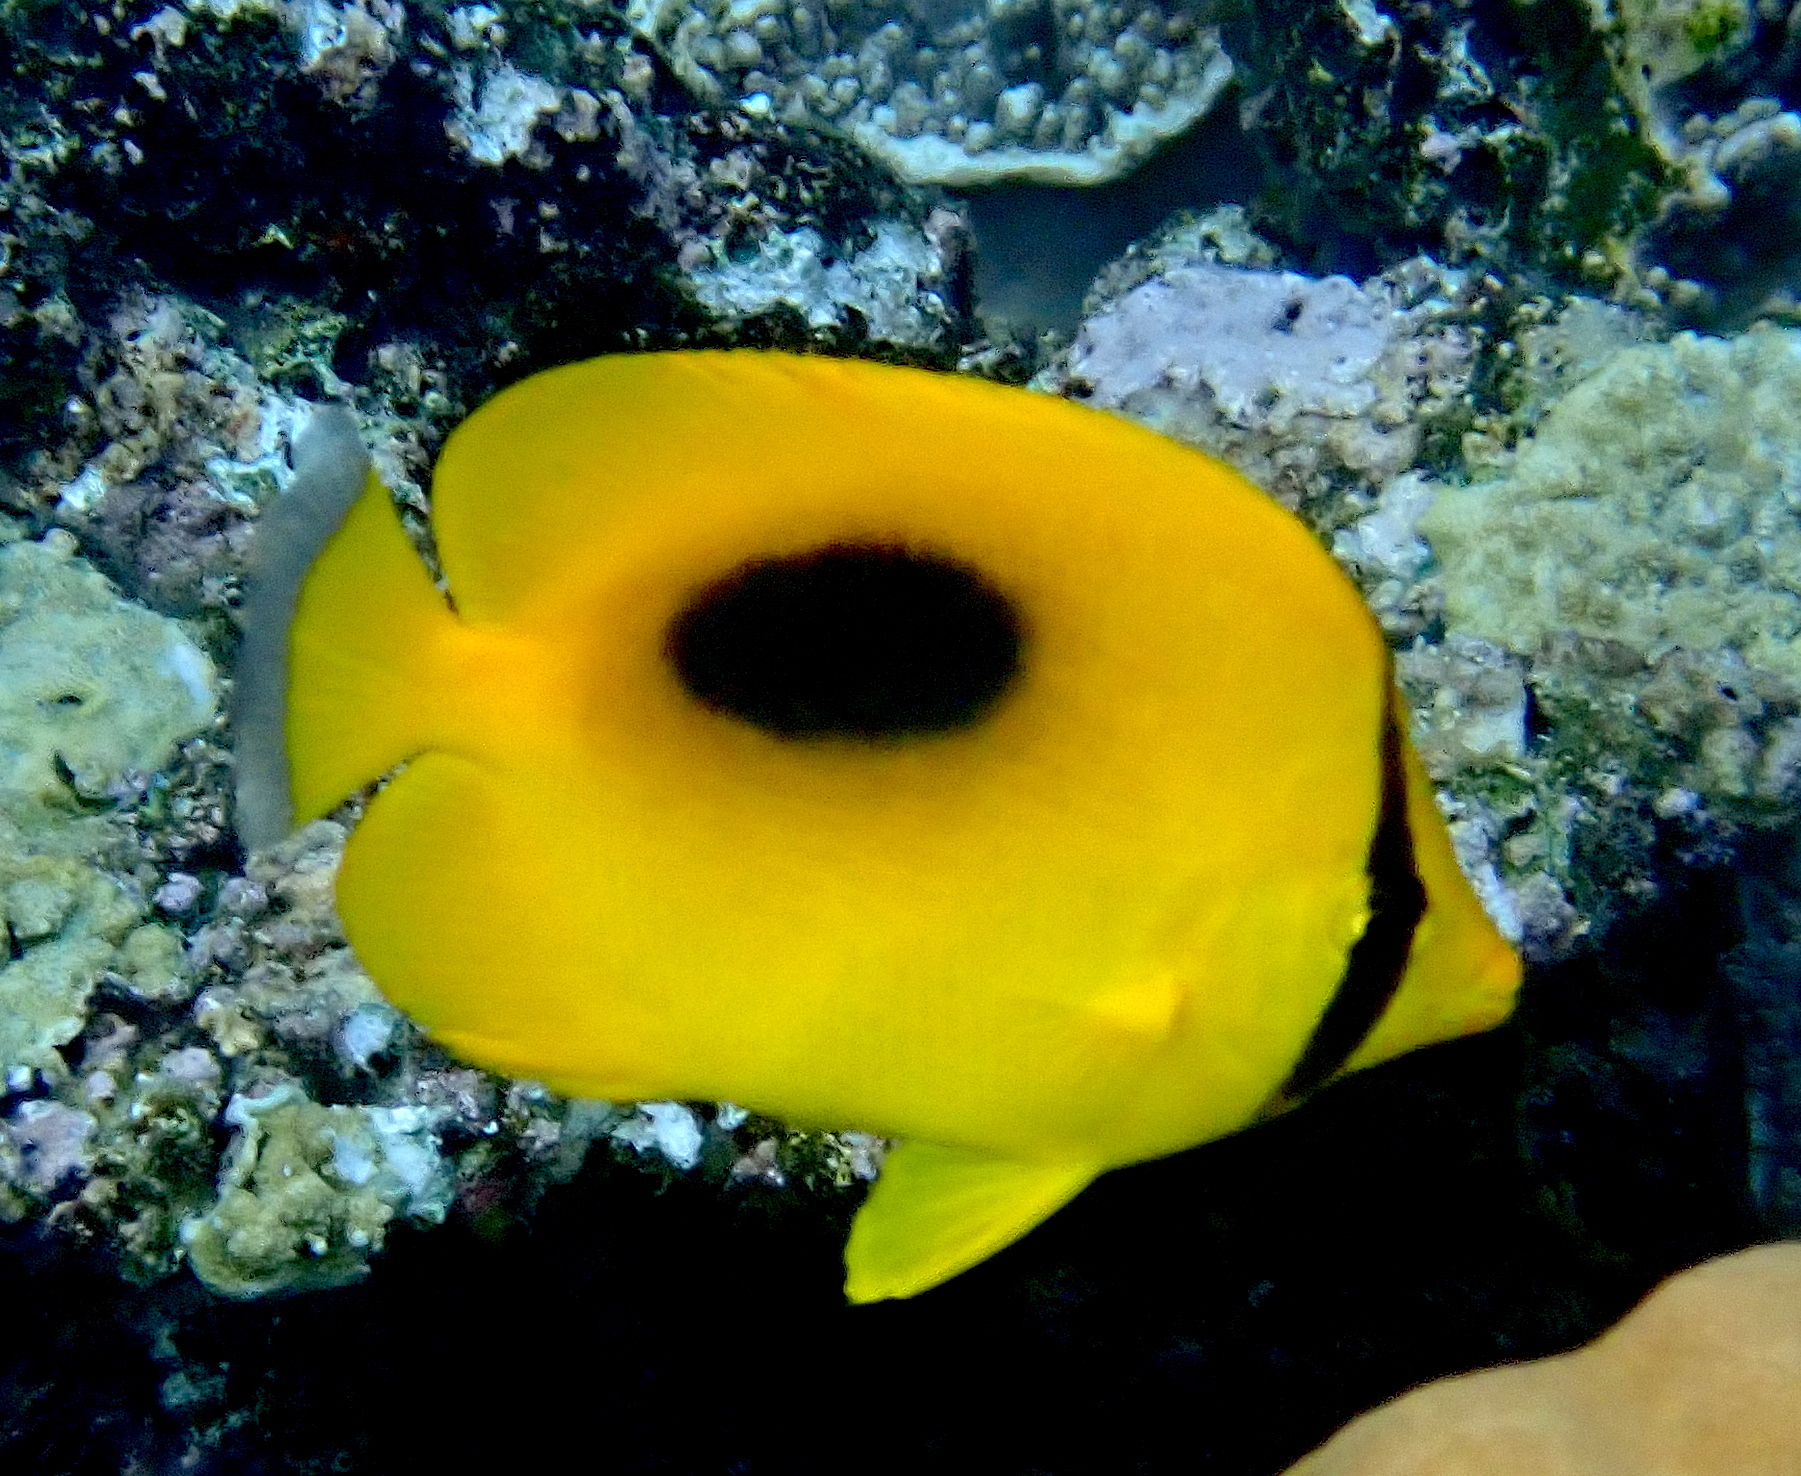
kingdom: Animalia
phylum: Chordata
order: Perciformes
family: Chaetodontidae
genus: Chaetodon
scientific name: Chaetodon speculum
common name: Mirror butterflyfish
